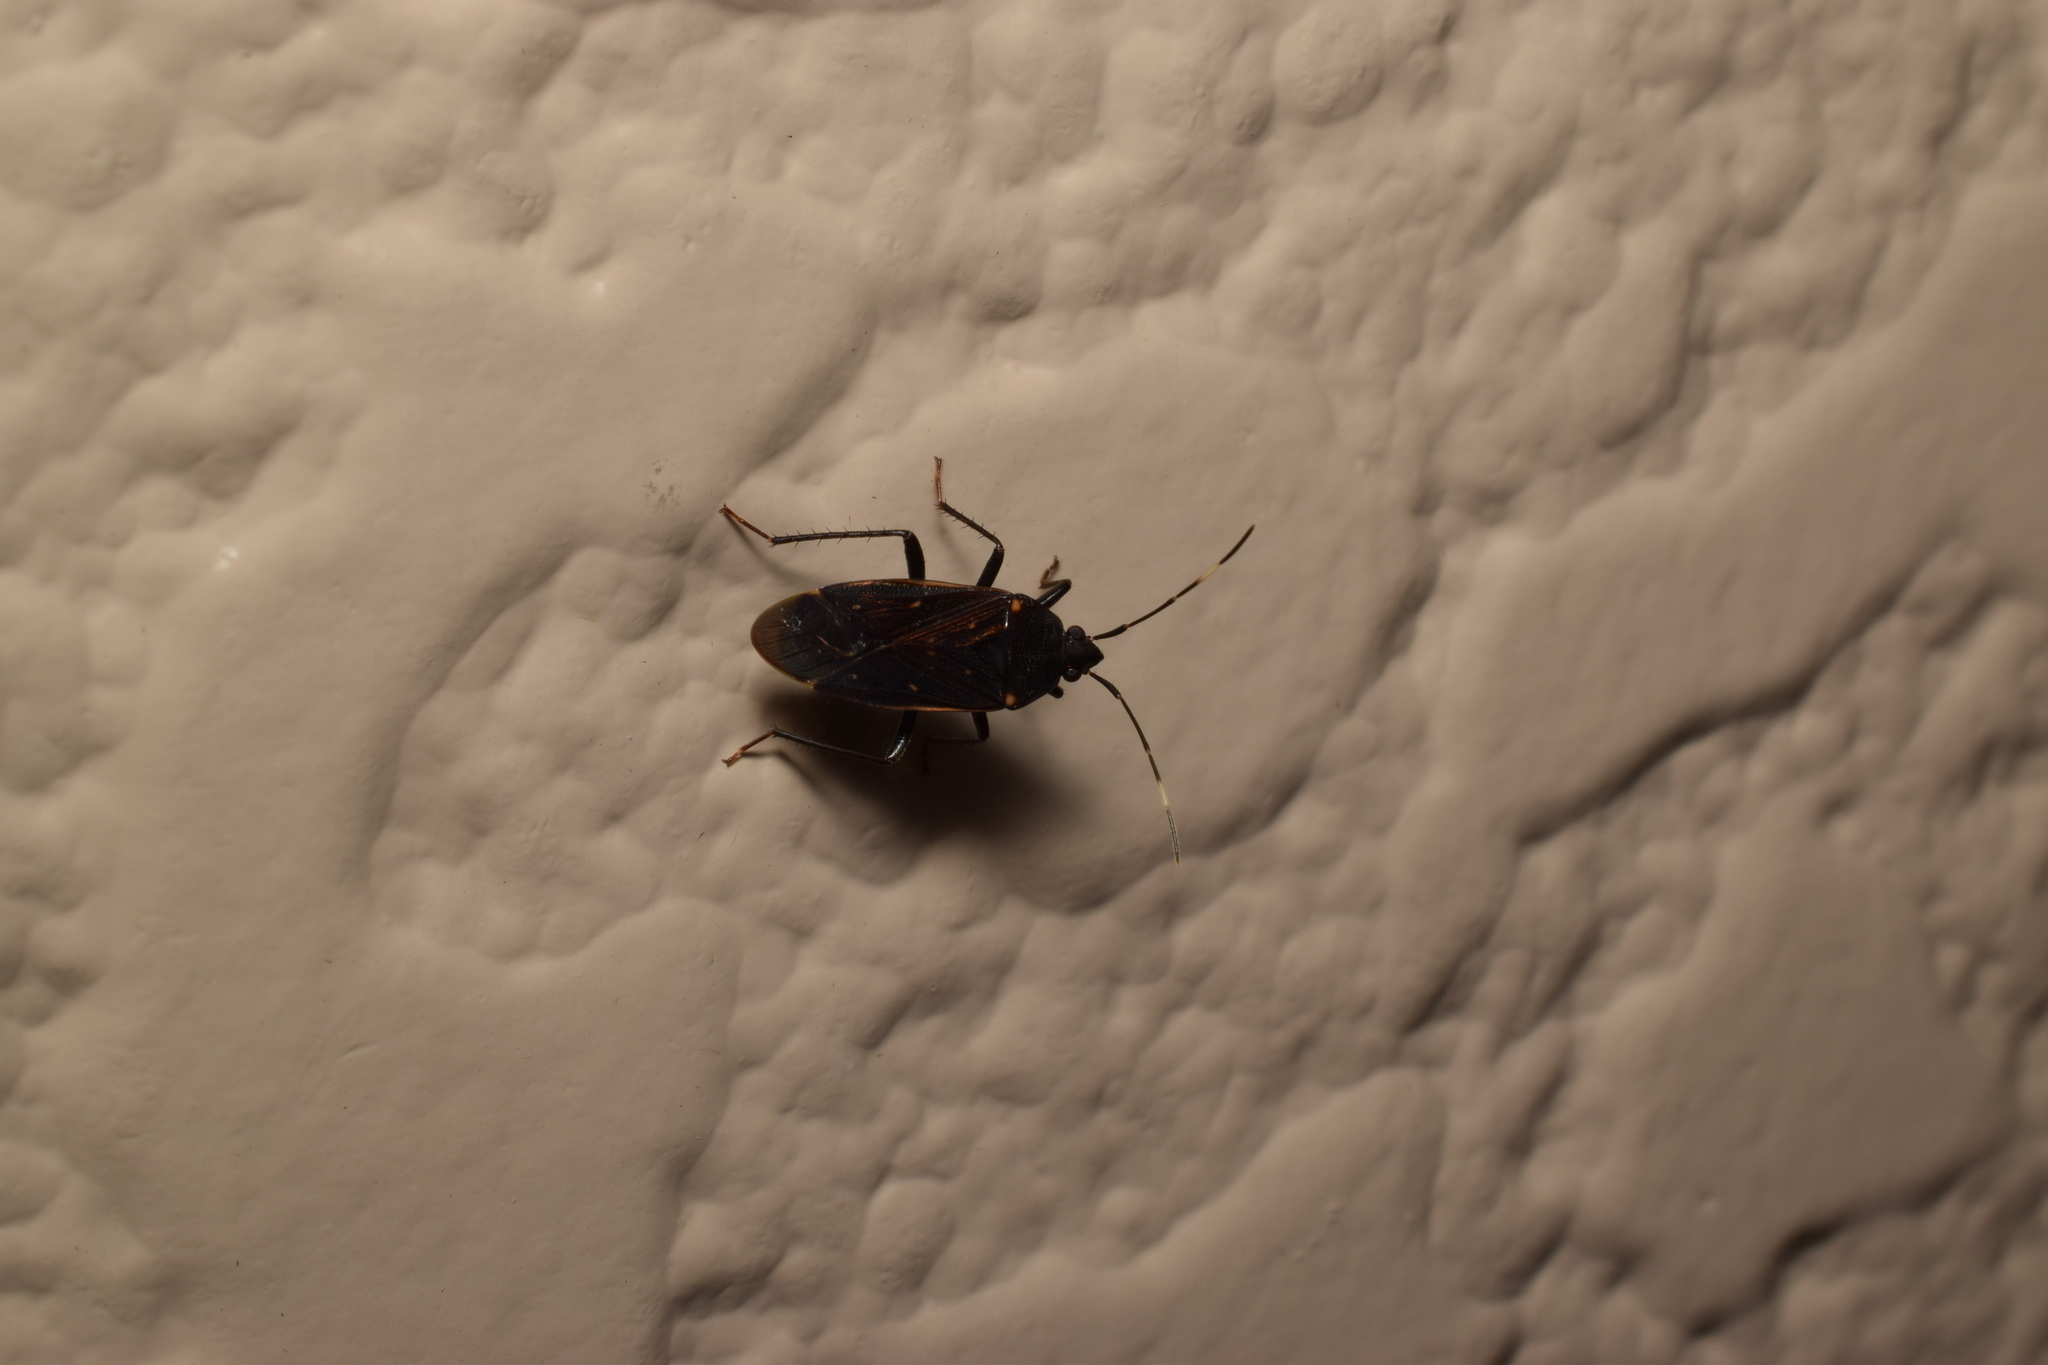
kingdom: Animalia
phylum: Arthropoda
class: Insecta
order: Hemiptera
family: Rhyparochromidae
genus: Neolethaeus
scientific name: Neolethaeus assamensis
